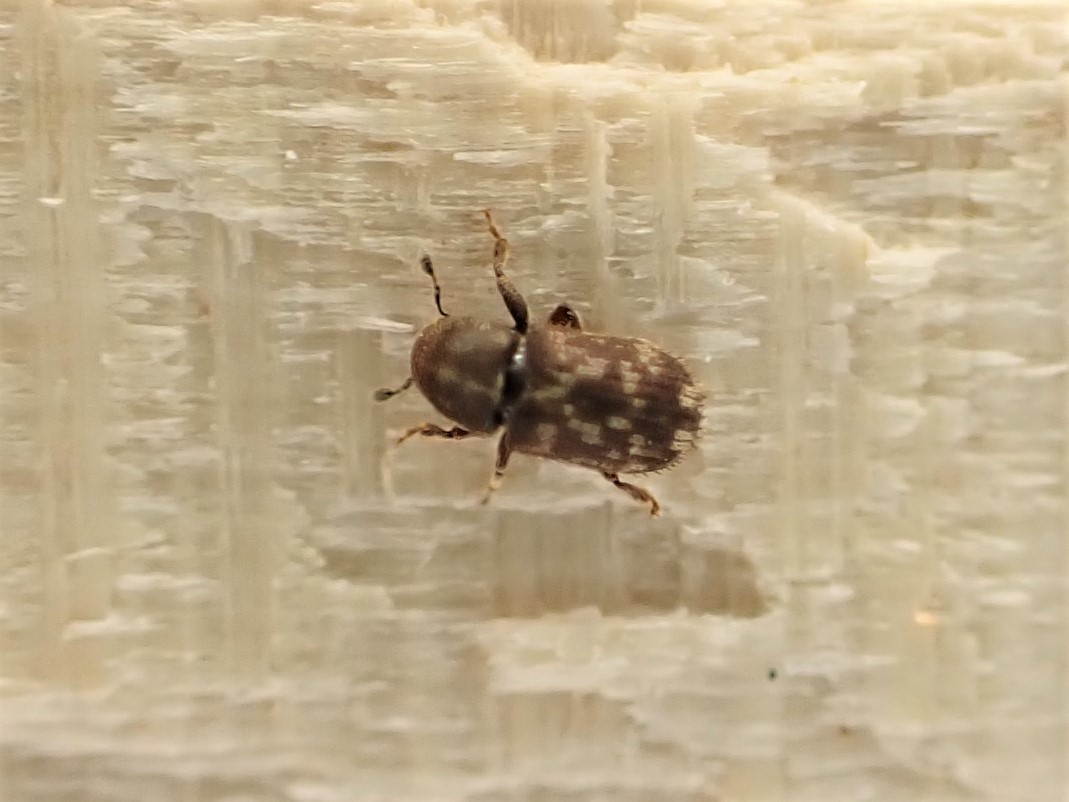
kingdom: Animalia
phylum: Arthropoda
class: Insecta
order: Coleoptera
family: Curculionidae
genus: Chaetoptelius
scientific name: Chaetoptelius mundulus
